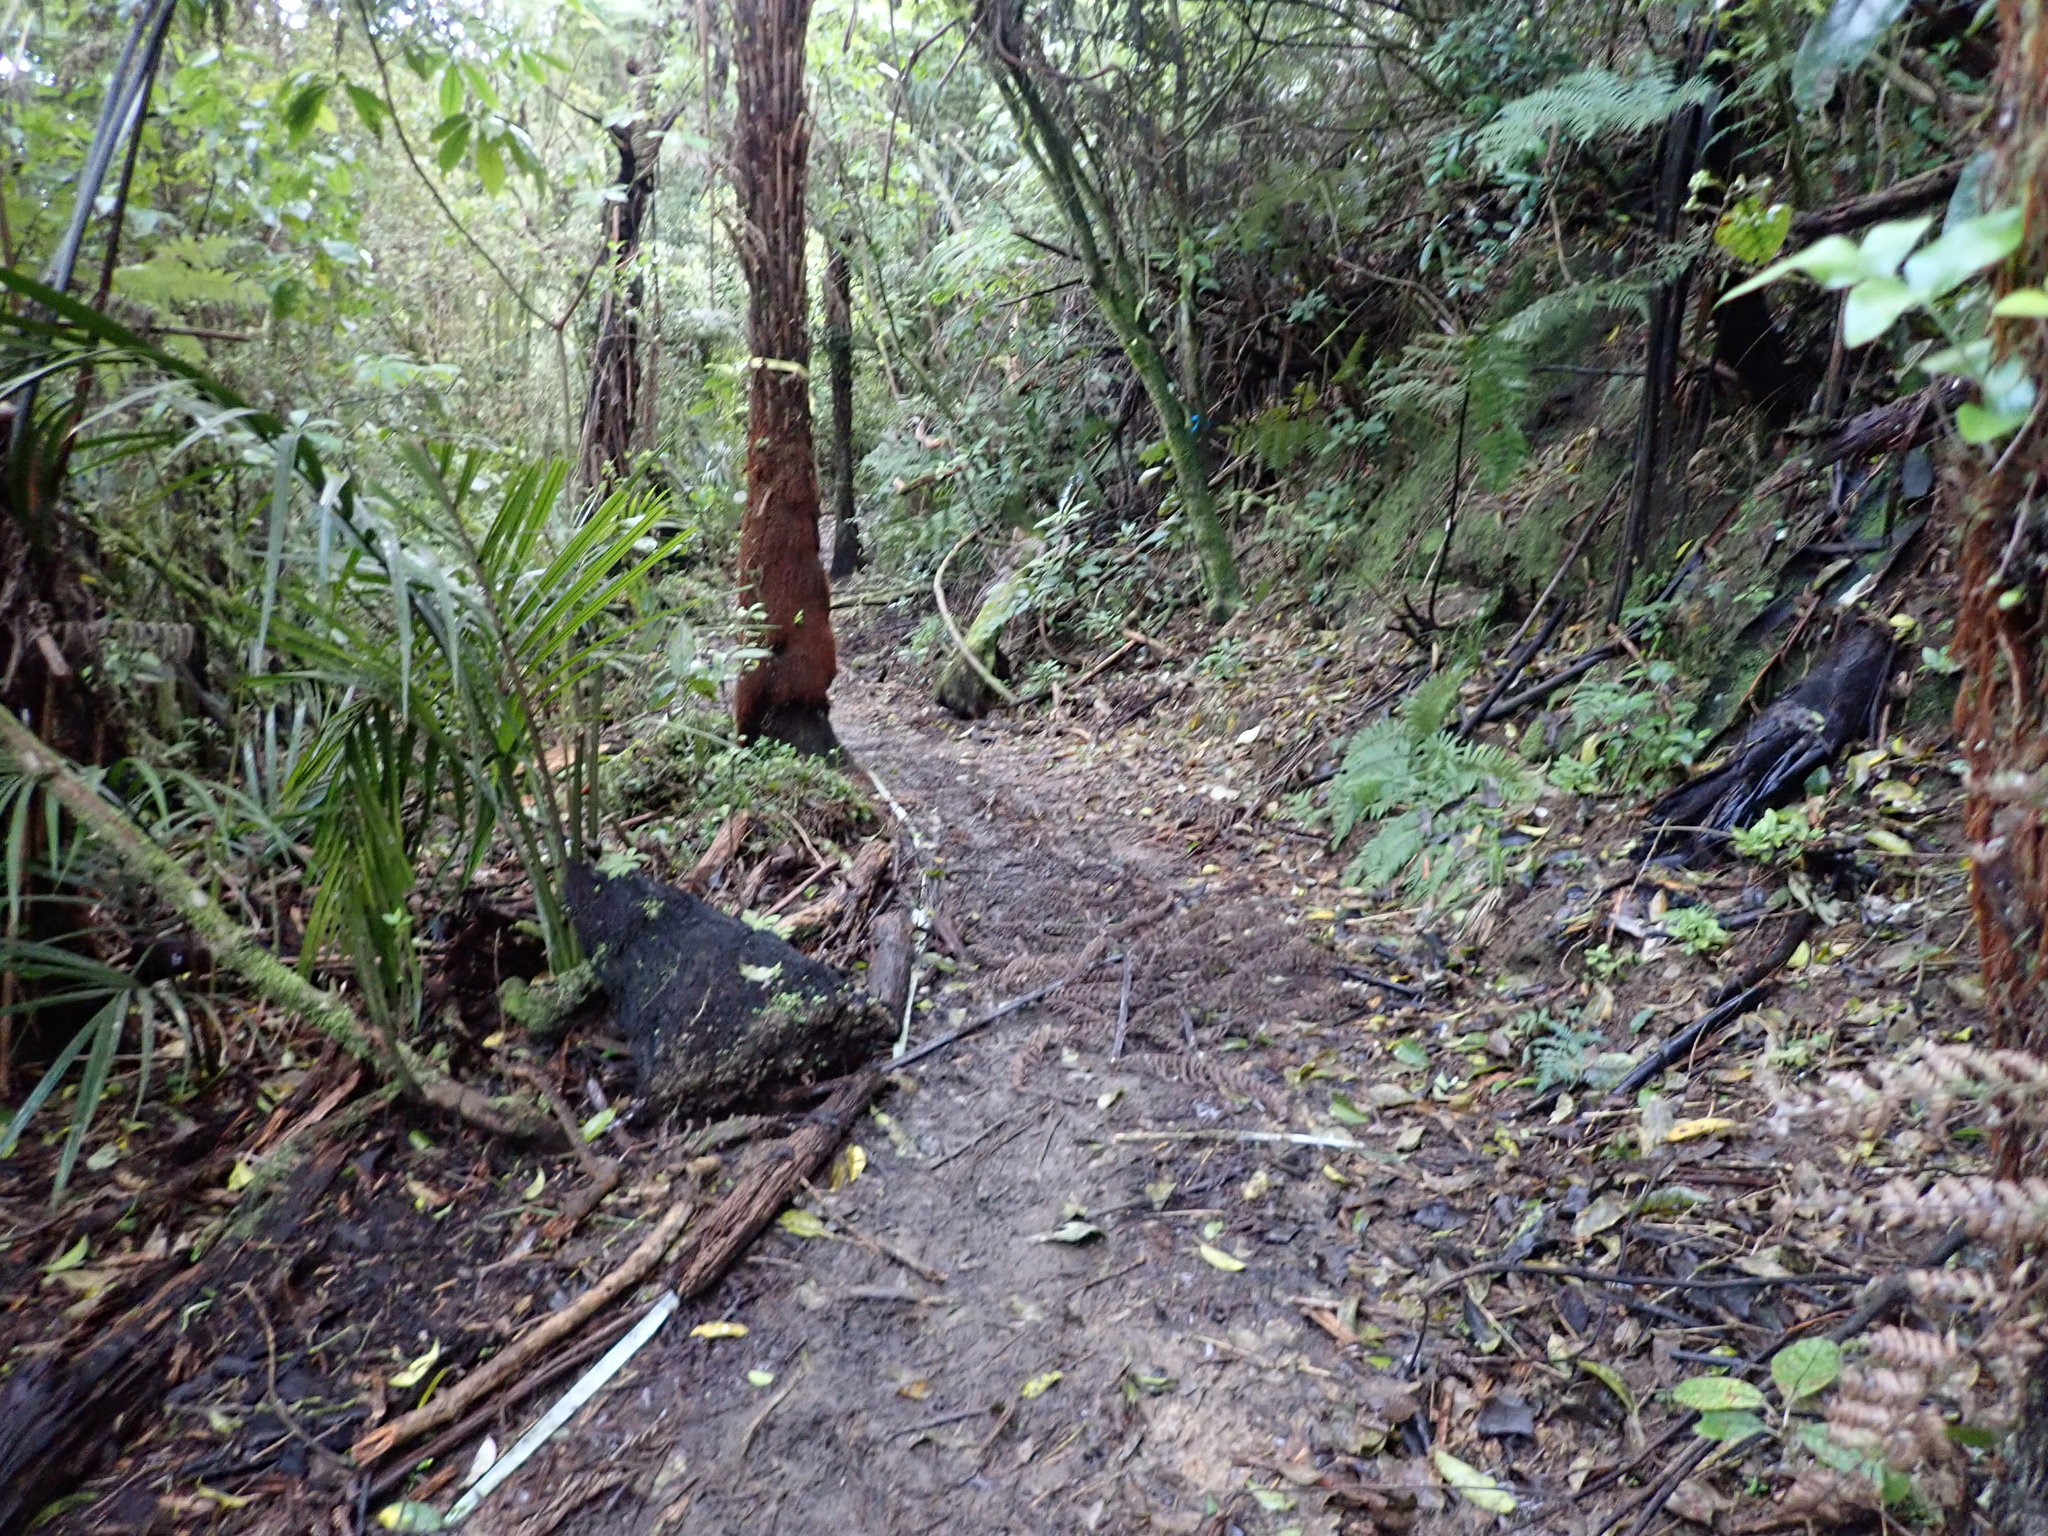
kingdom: Plantae
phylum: Tracheophyta
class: Liliopsida
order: Arecales
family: Arecaceae
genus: Rhopalostylis
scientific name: Rhopalostylis sapida
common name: Feather-duster palm
